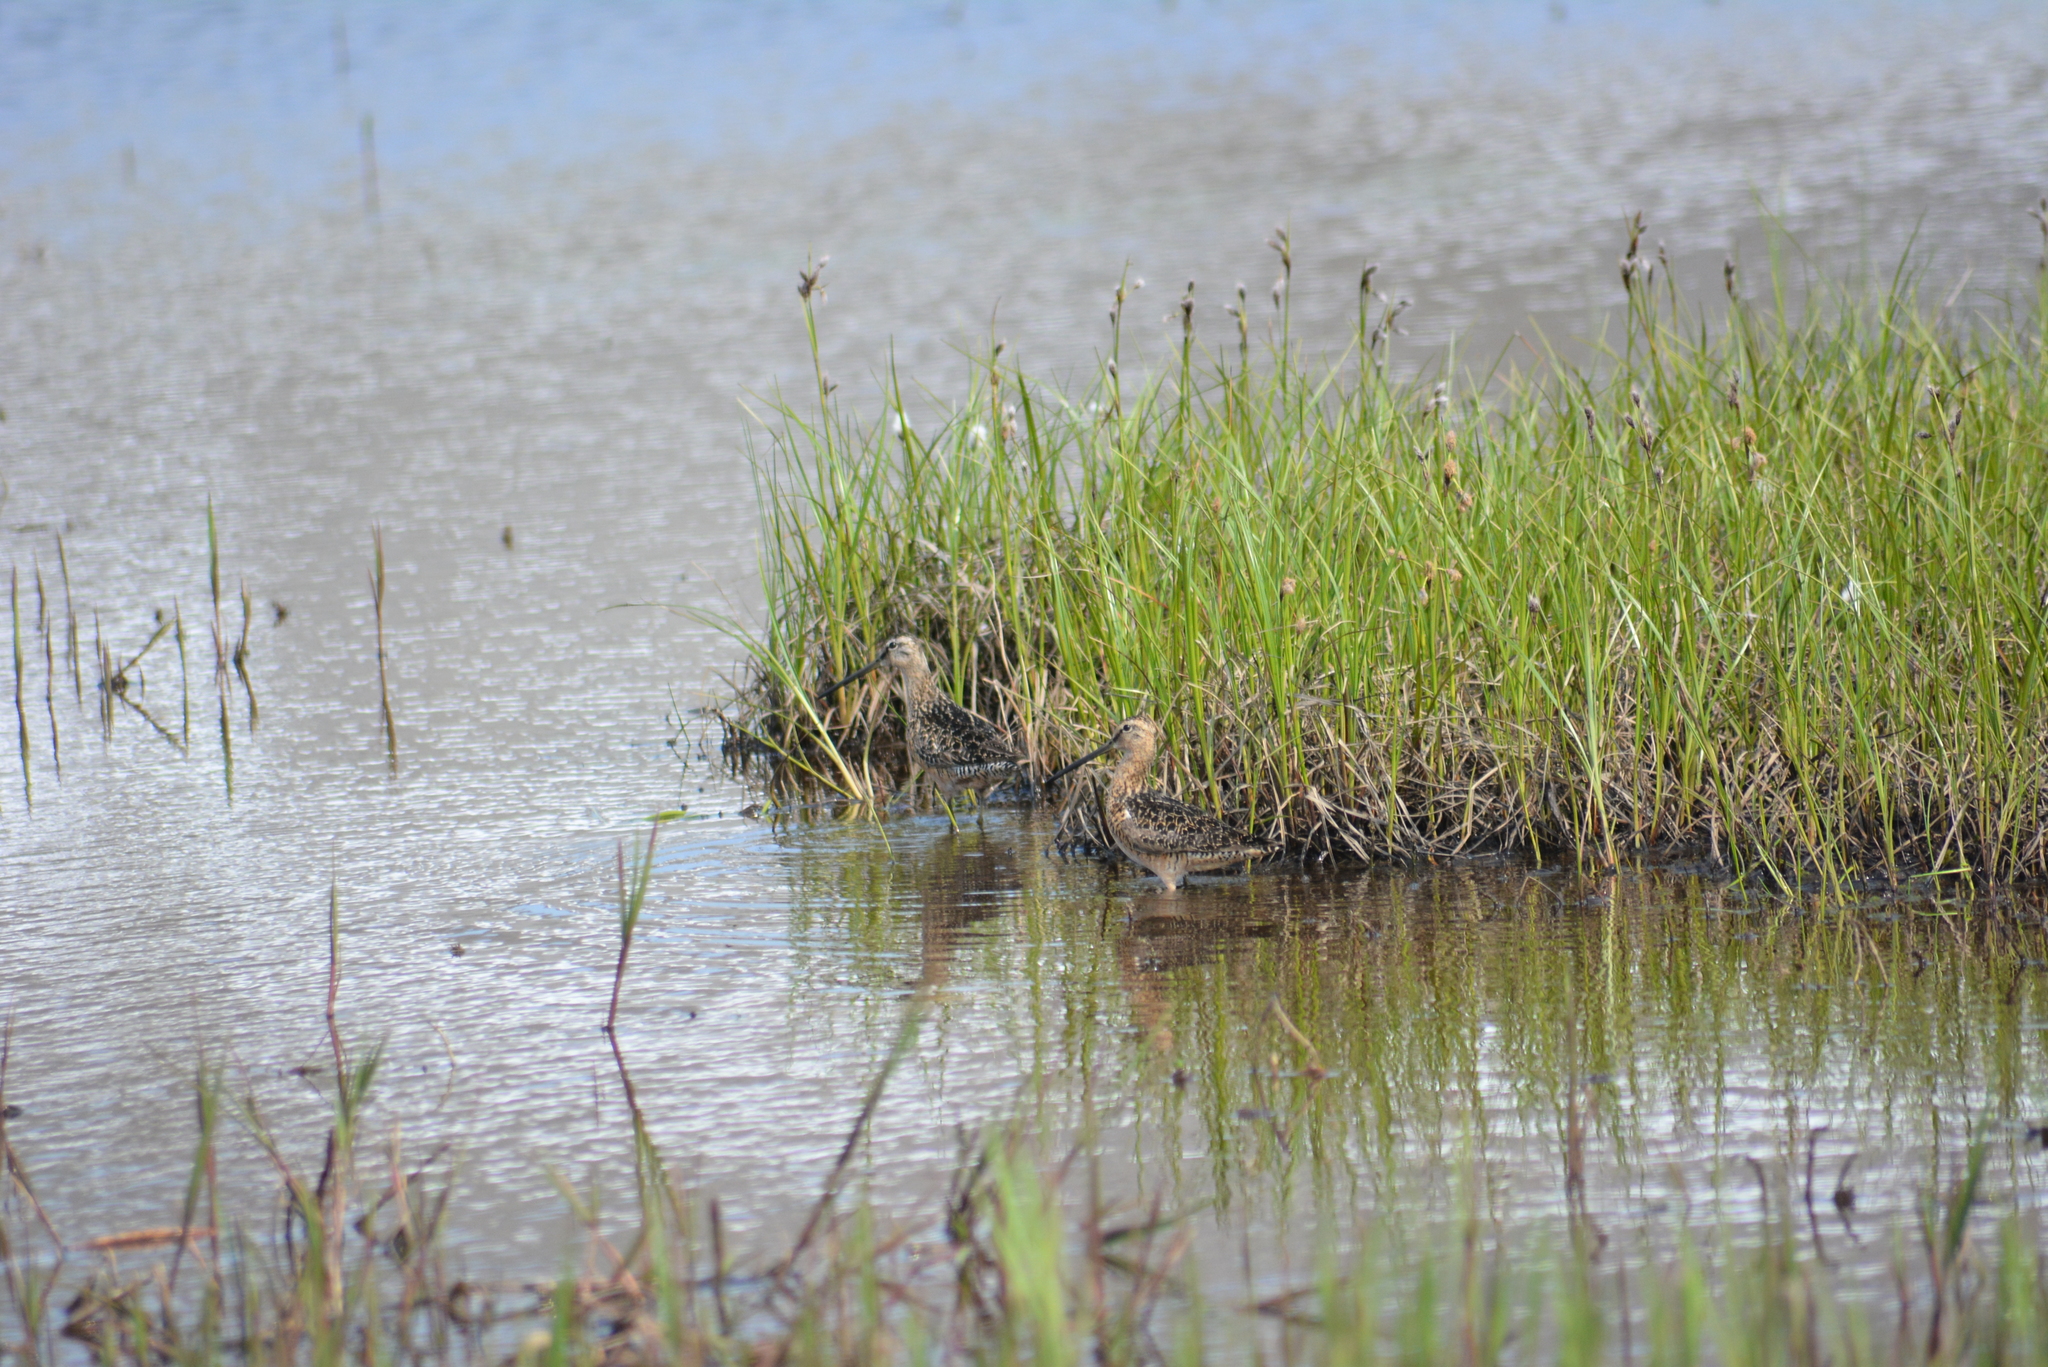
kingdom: Animalia
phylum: Chordata
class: Aves
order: Charadriiformes
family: Scolopacidae
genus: Limnodromus
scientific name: Limnodromus scolopaceus
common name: Long-billed dowitcher
